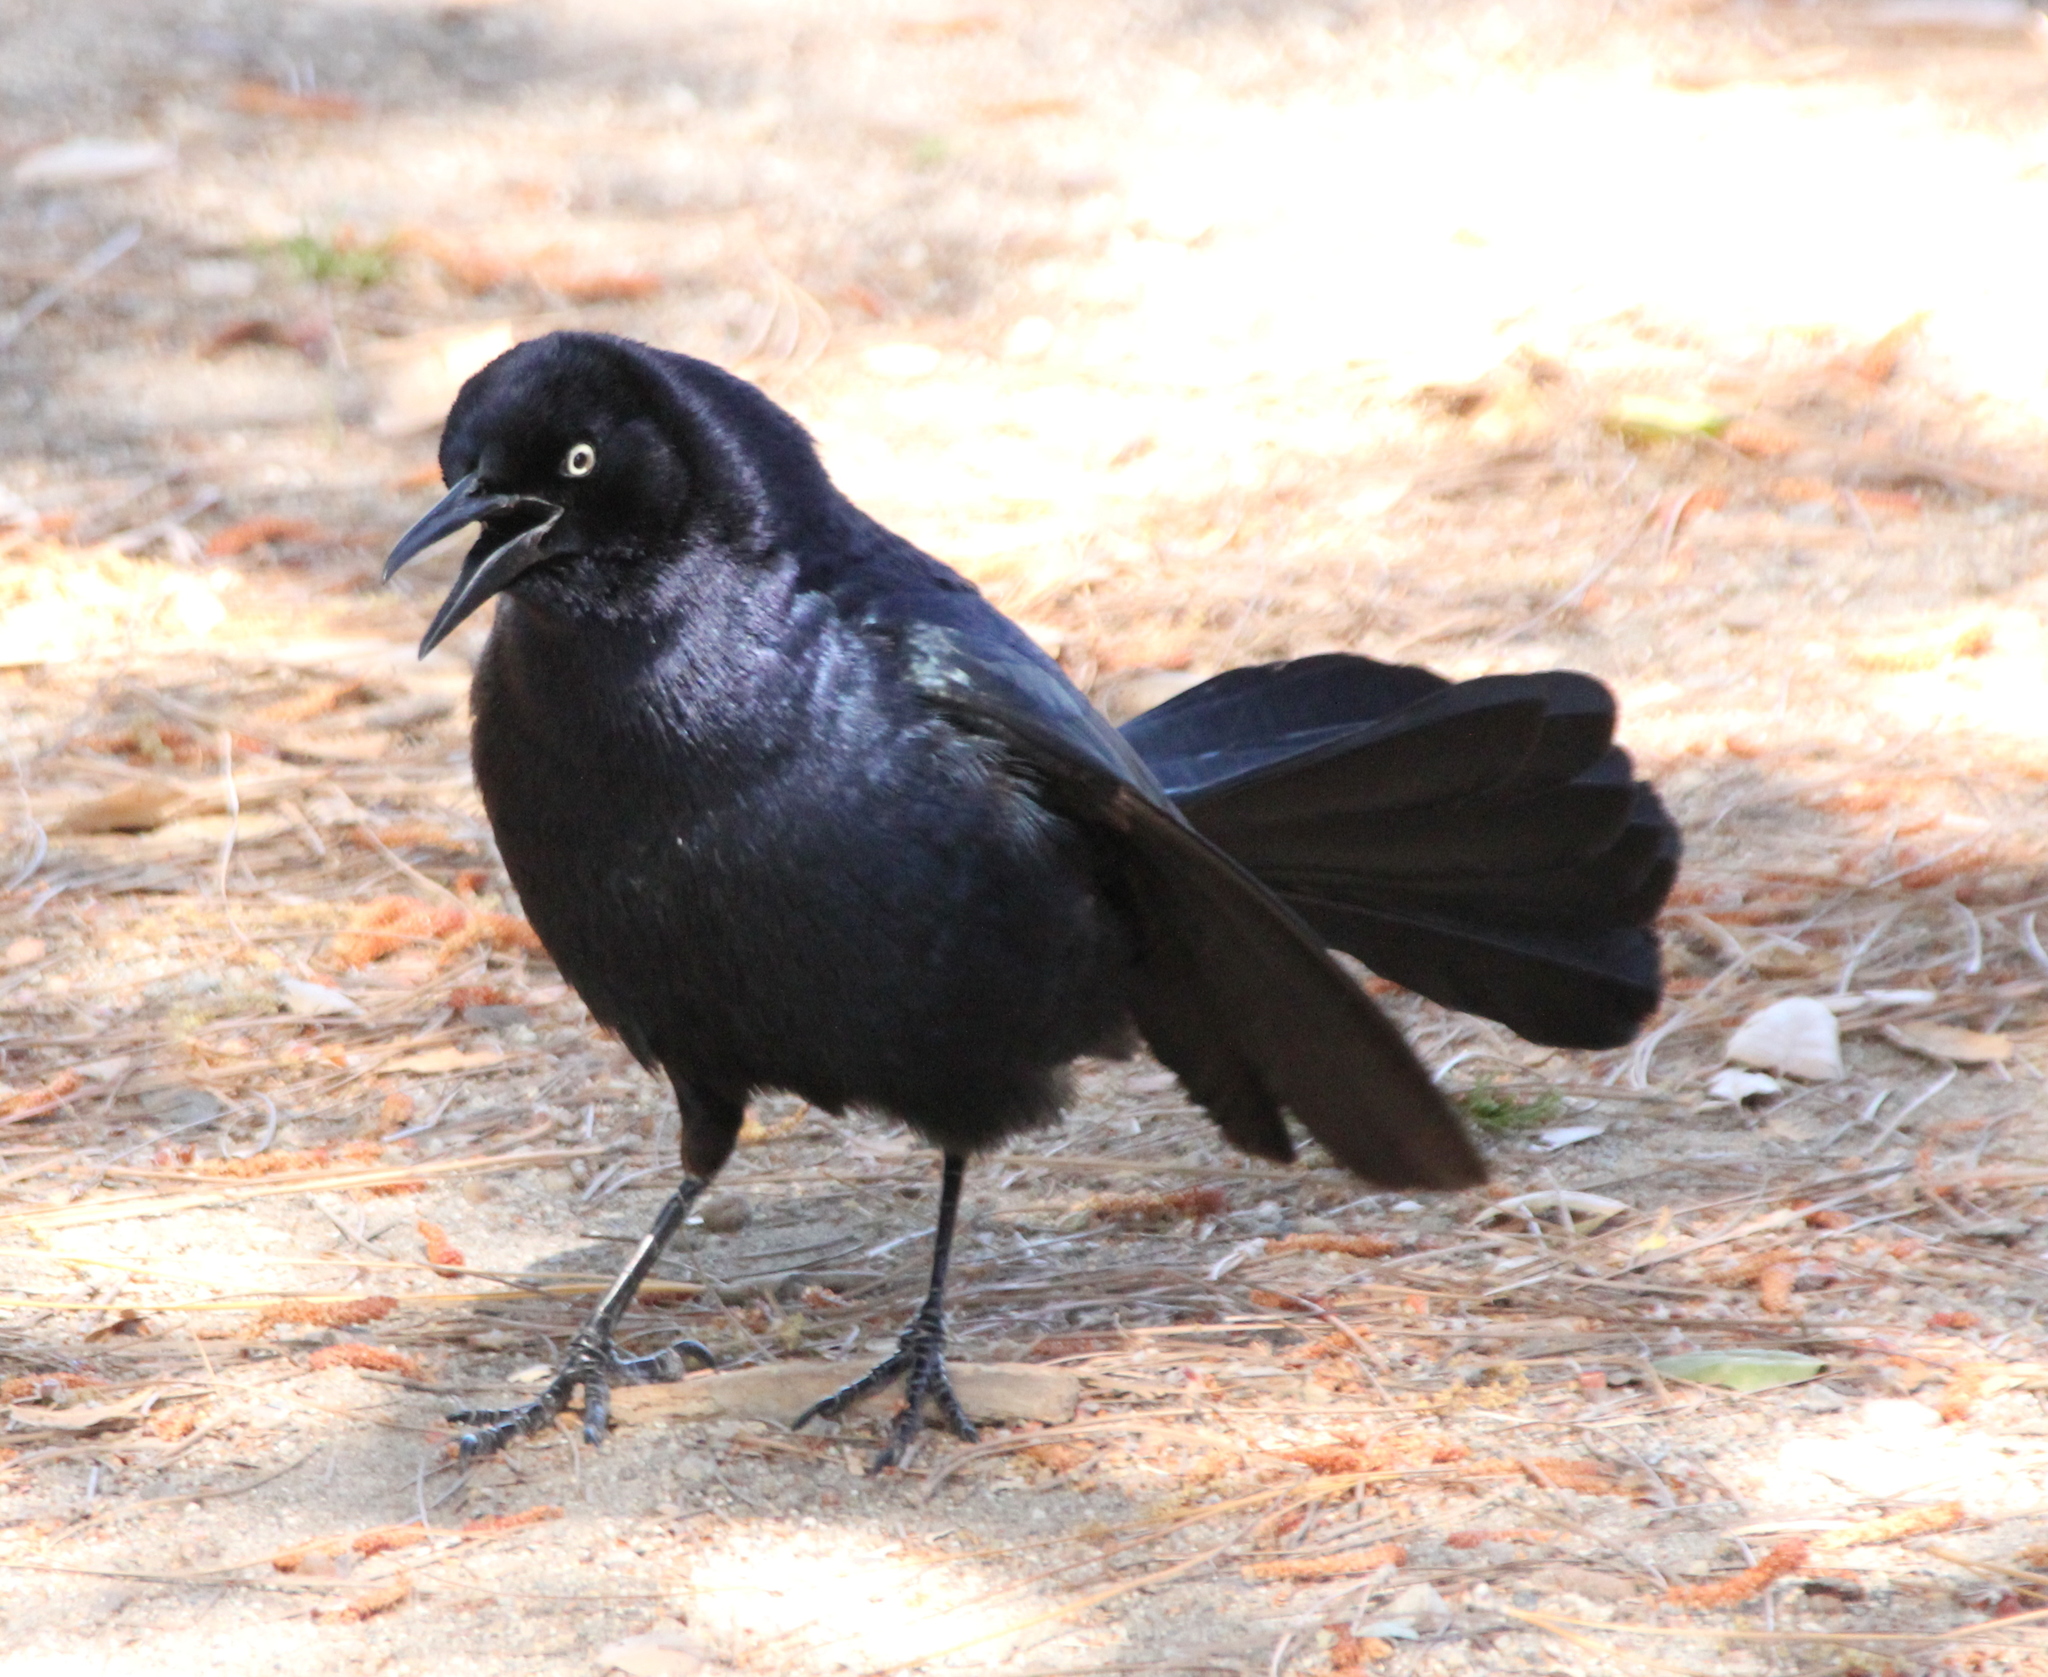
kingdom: Animalia
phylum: Chordata
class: Aves
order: Passeriformes
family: Icteridae
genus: Quiscalus
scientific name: Quiscalus mexicanus
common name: Great-tailed grackle
